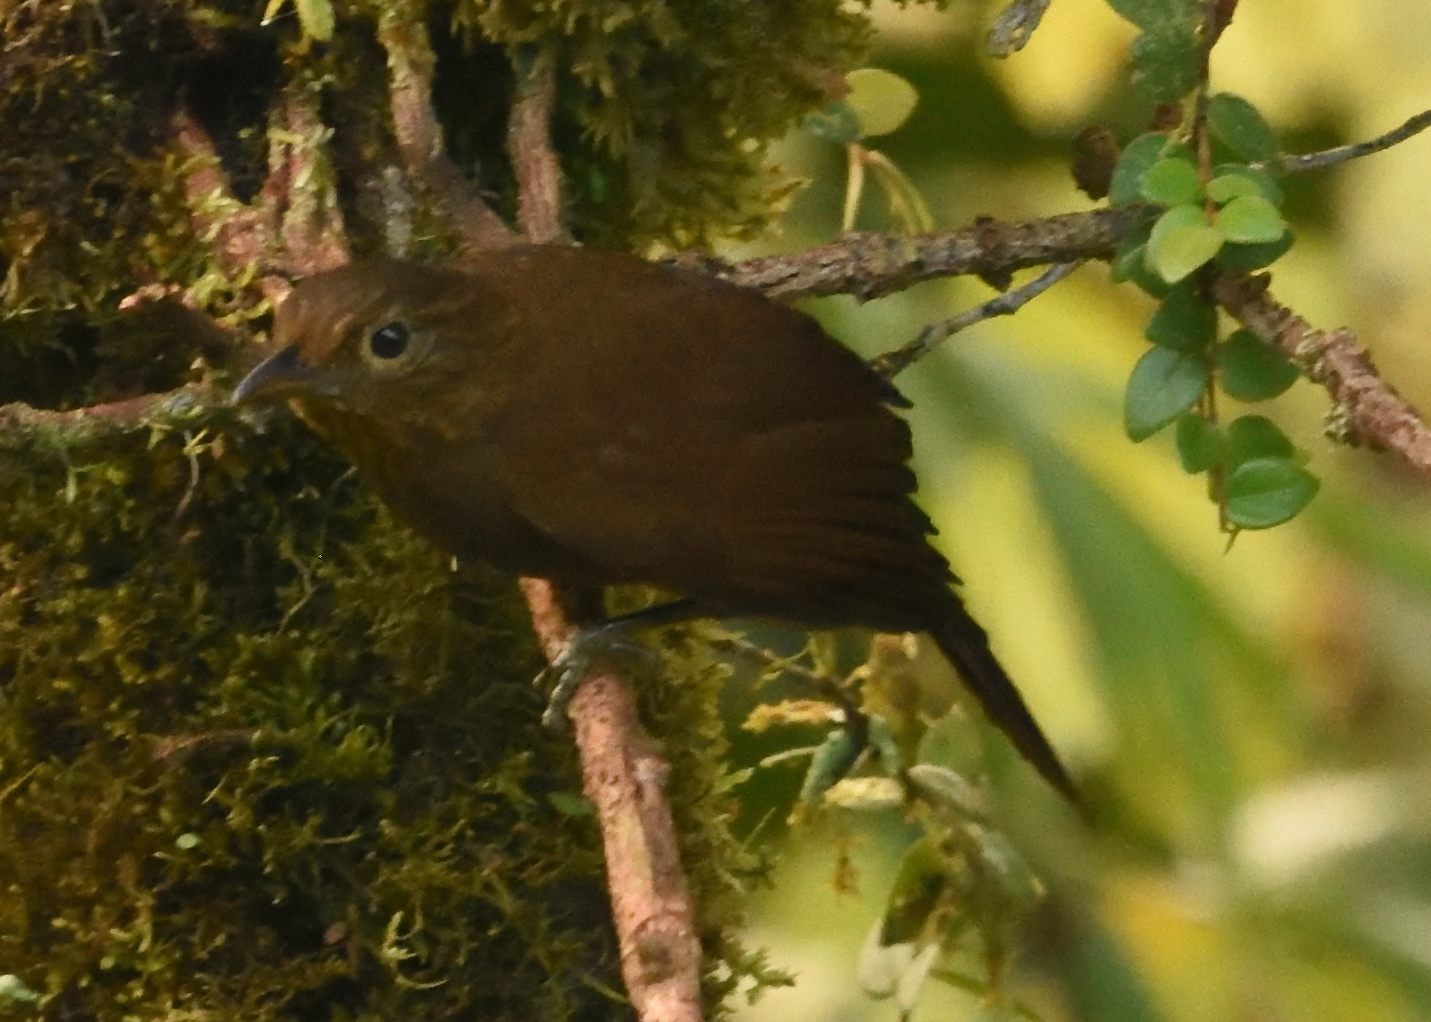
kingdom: Animalia
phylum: Chordata
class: Aves
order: Passeriformes
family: Furnariidae
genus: Thripadectes
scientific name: Thripadectes ignobilis
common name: Uniform treehunter
